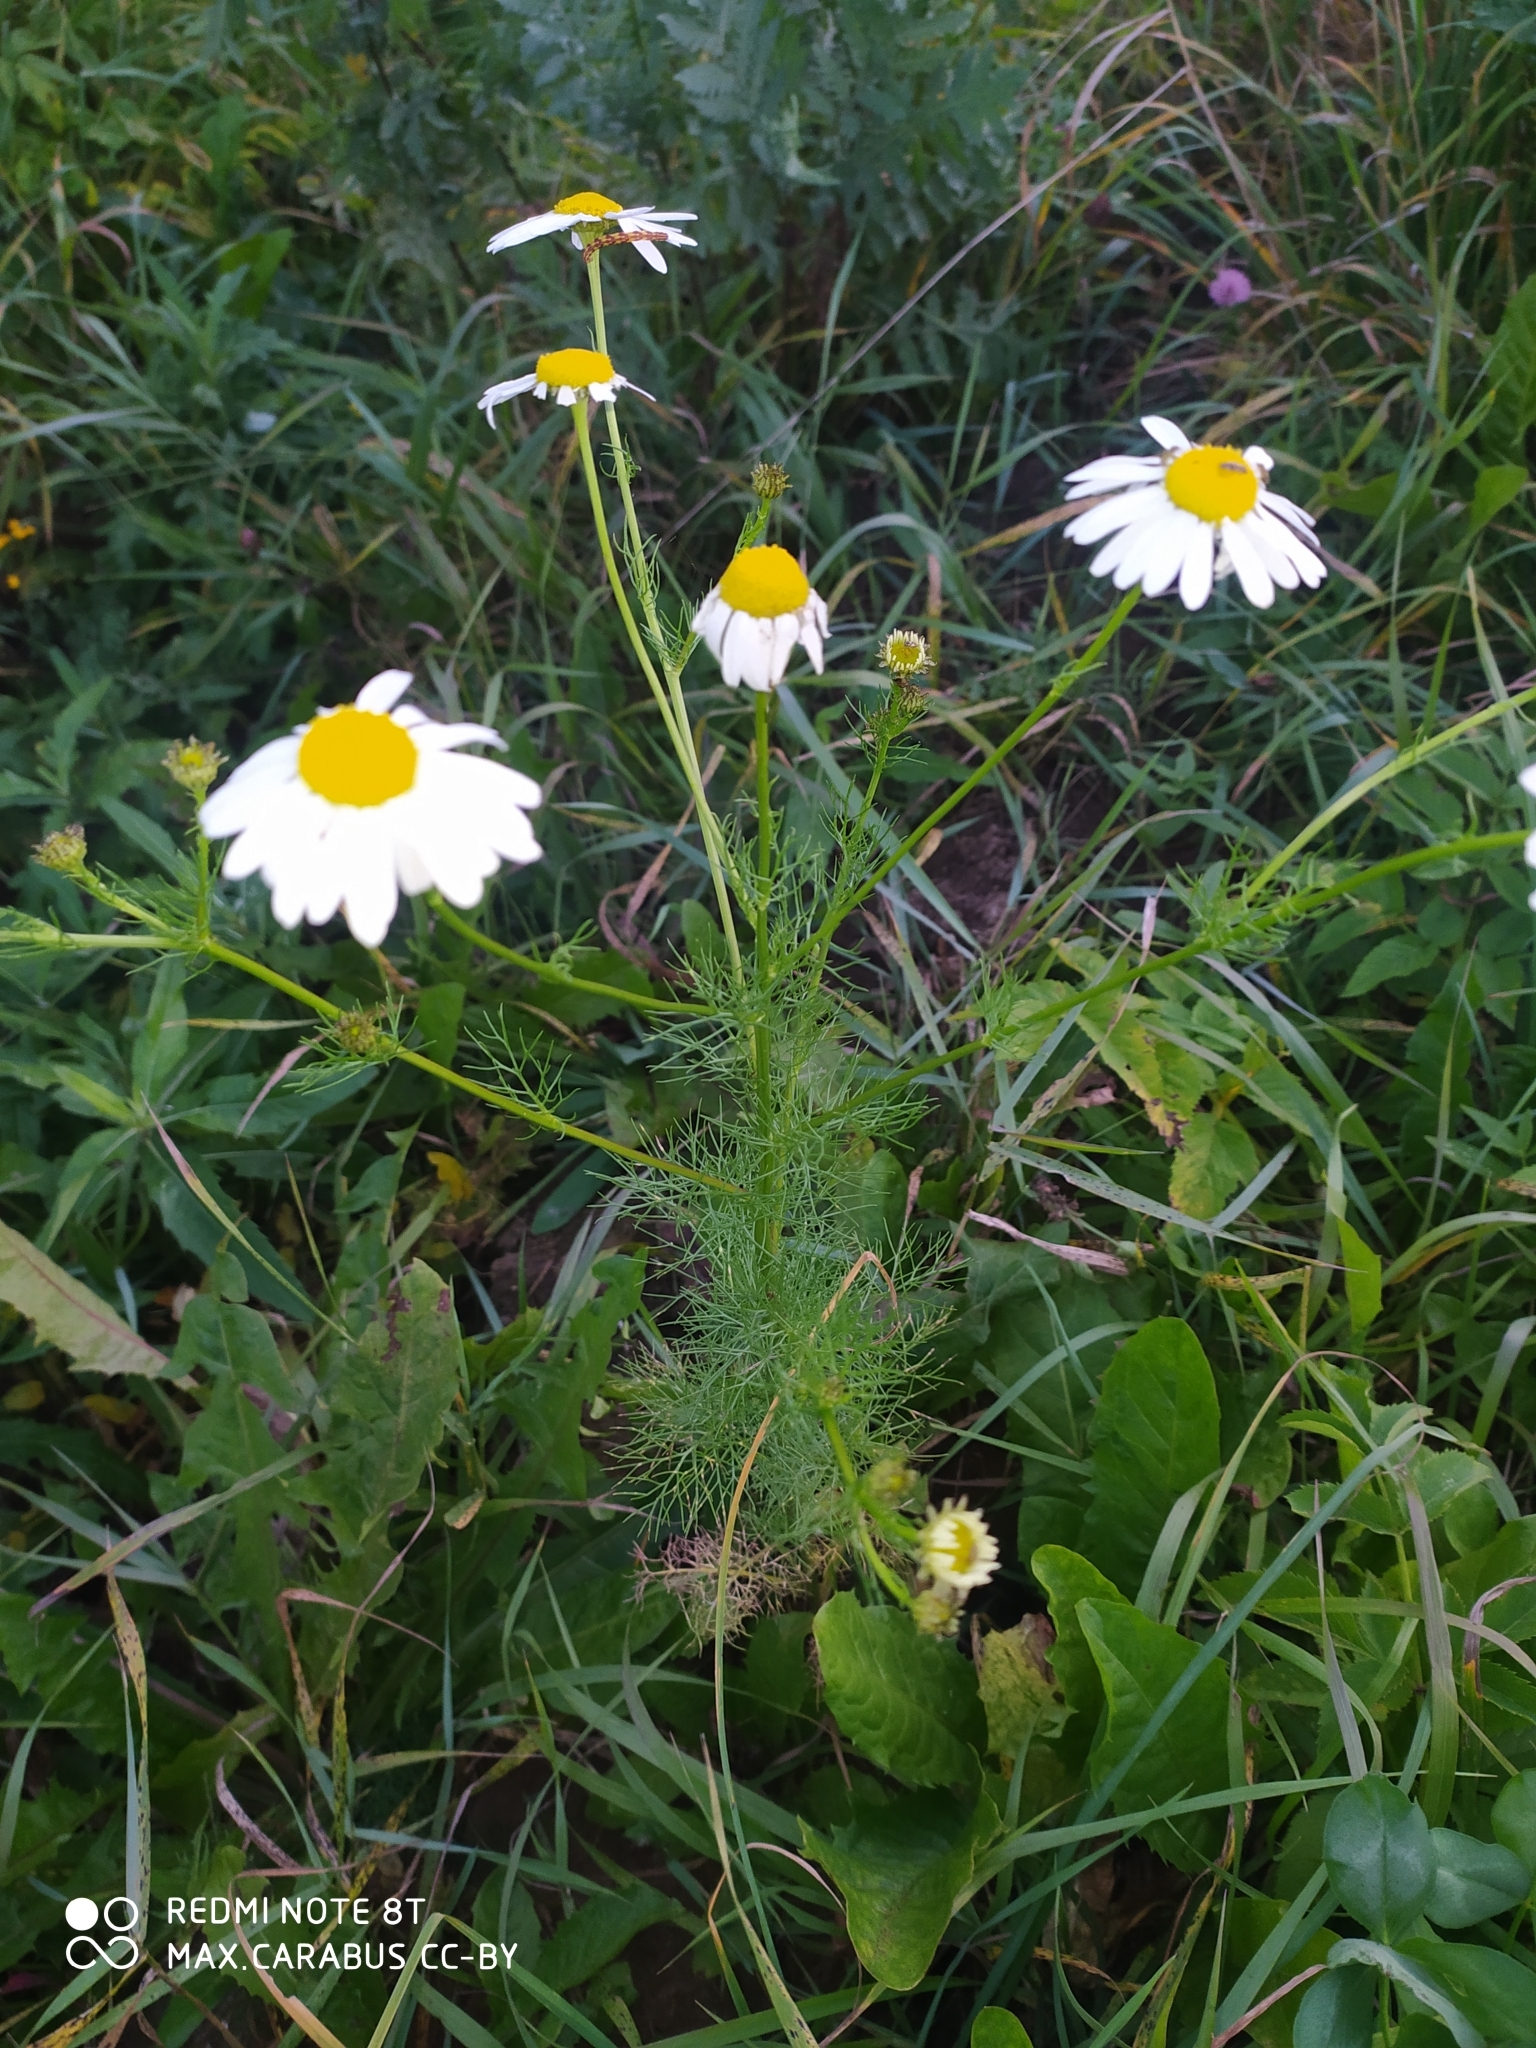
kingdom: Plantae
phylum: Tracheophyta
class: Magnoliopsida
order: Asterales
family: Asteraceae
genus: Tripleurospermum
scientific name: Tripleurospermum inodorum
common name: Scentless mayweed
